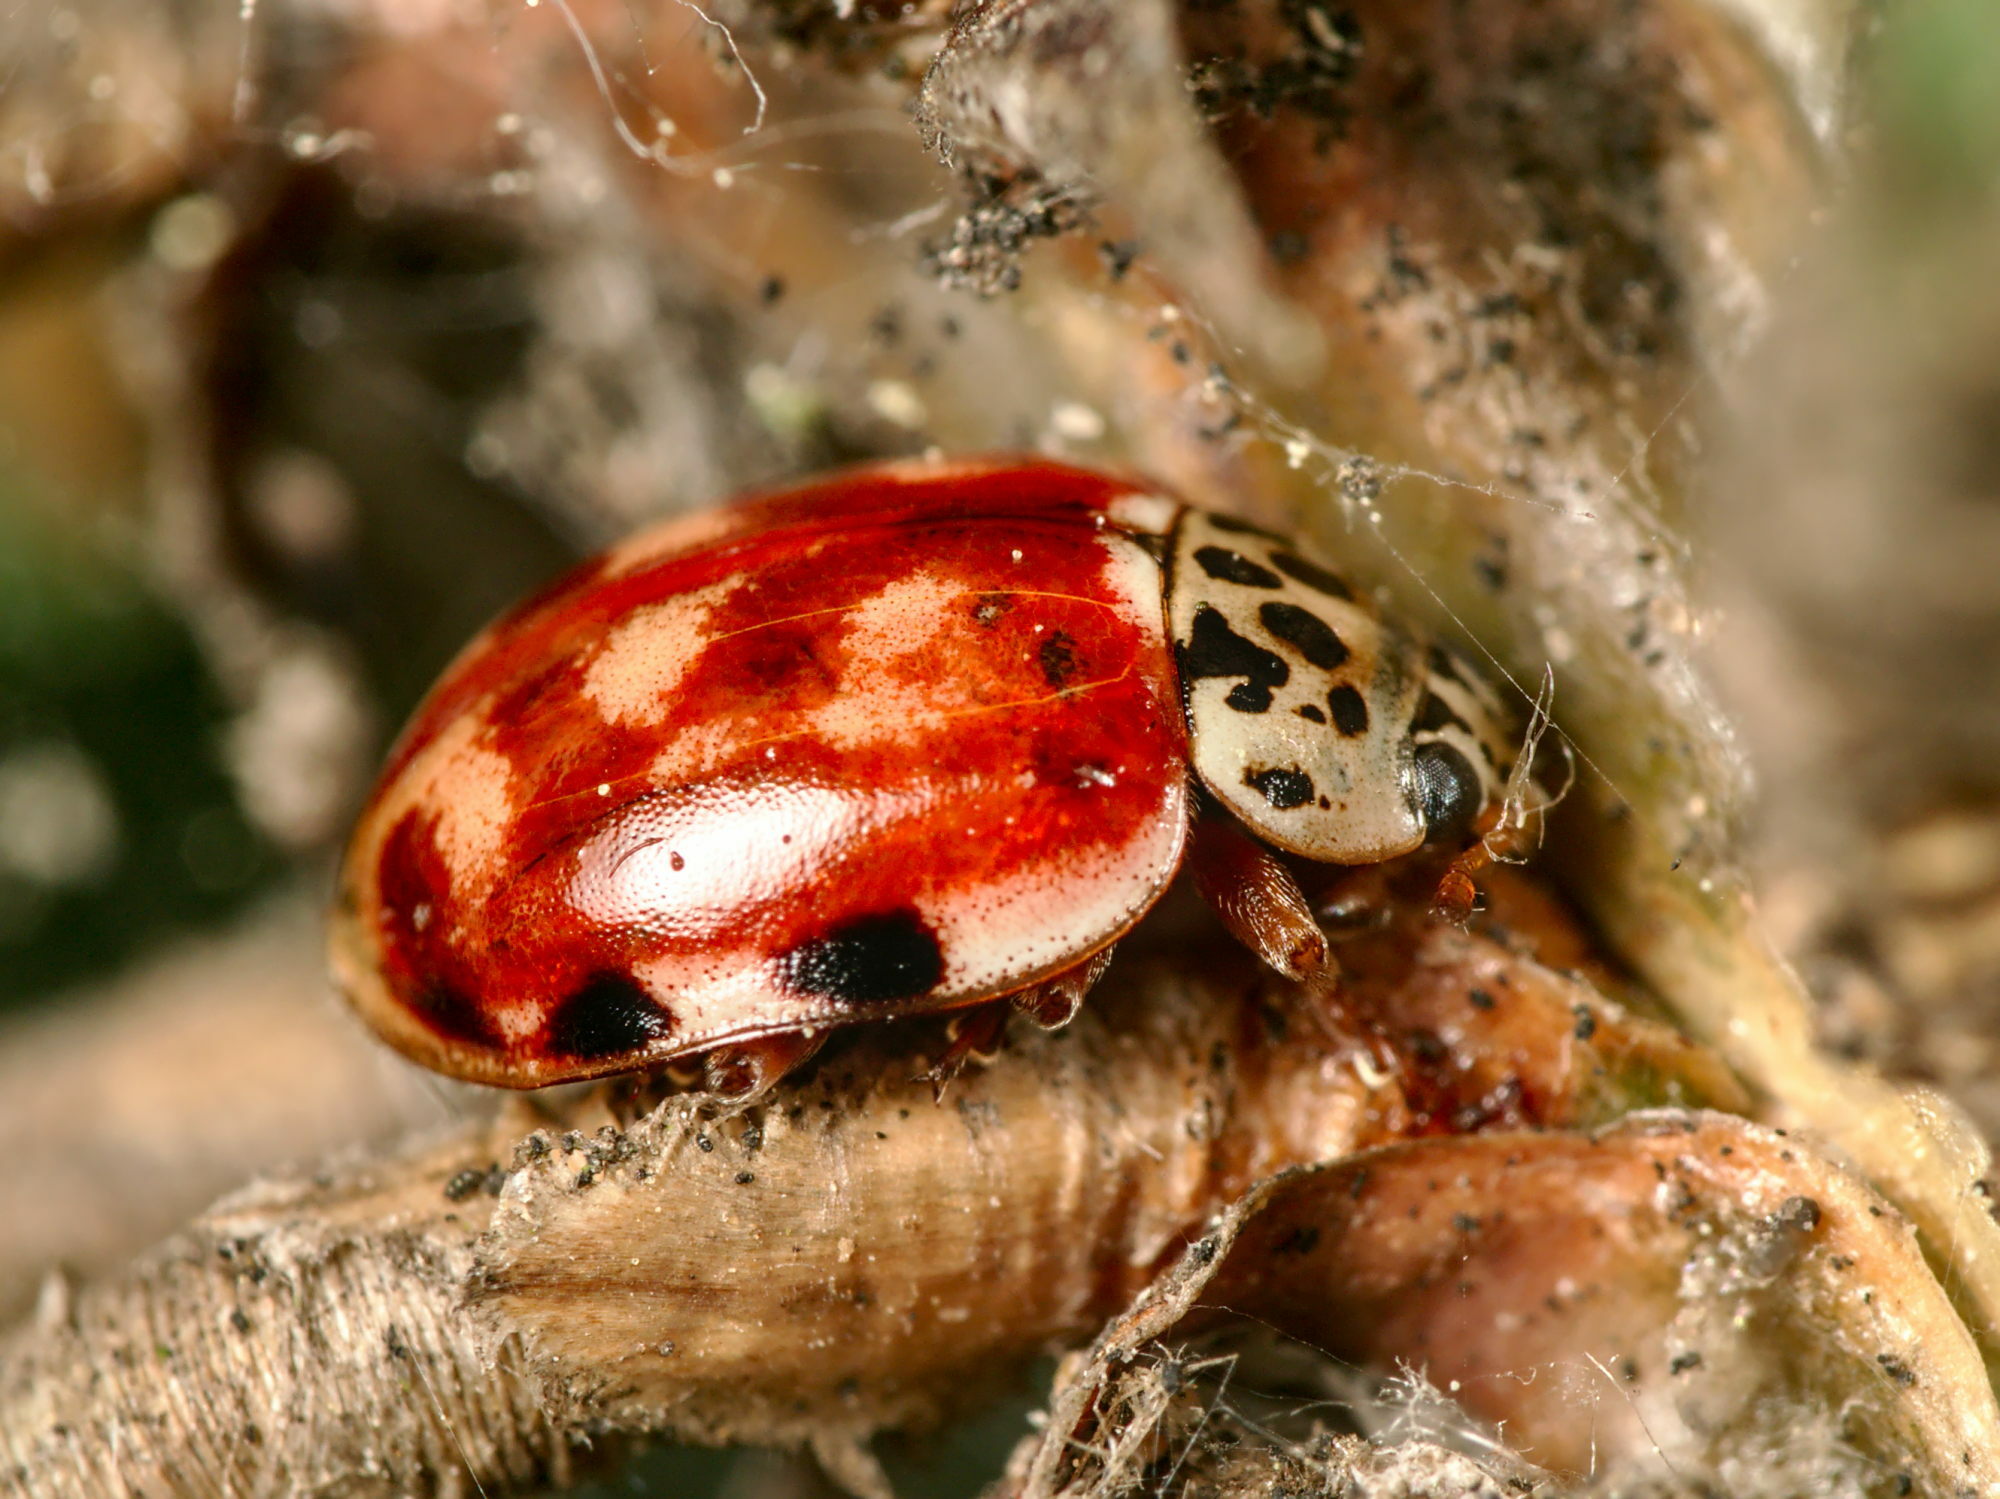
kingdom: Animalia
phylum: Arthropoda
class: Insecta
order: Coleoptera
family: Coccinellidae
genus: Harmonia
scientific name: Harmonia quadripunctata
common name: Cream-streaked ladybird
